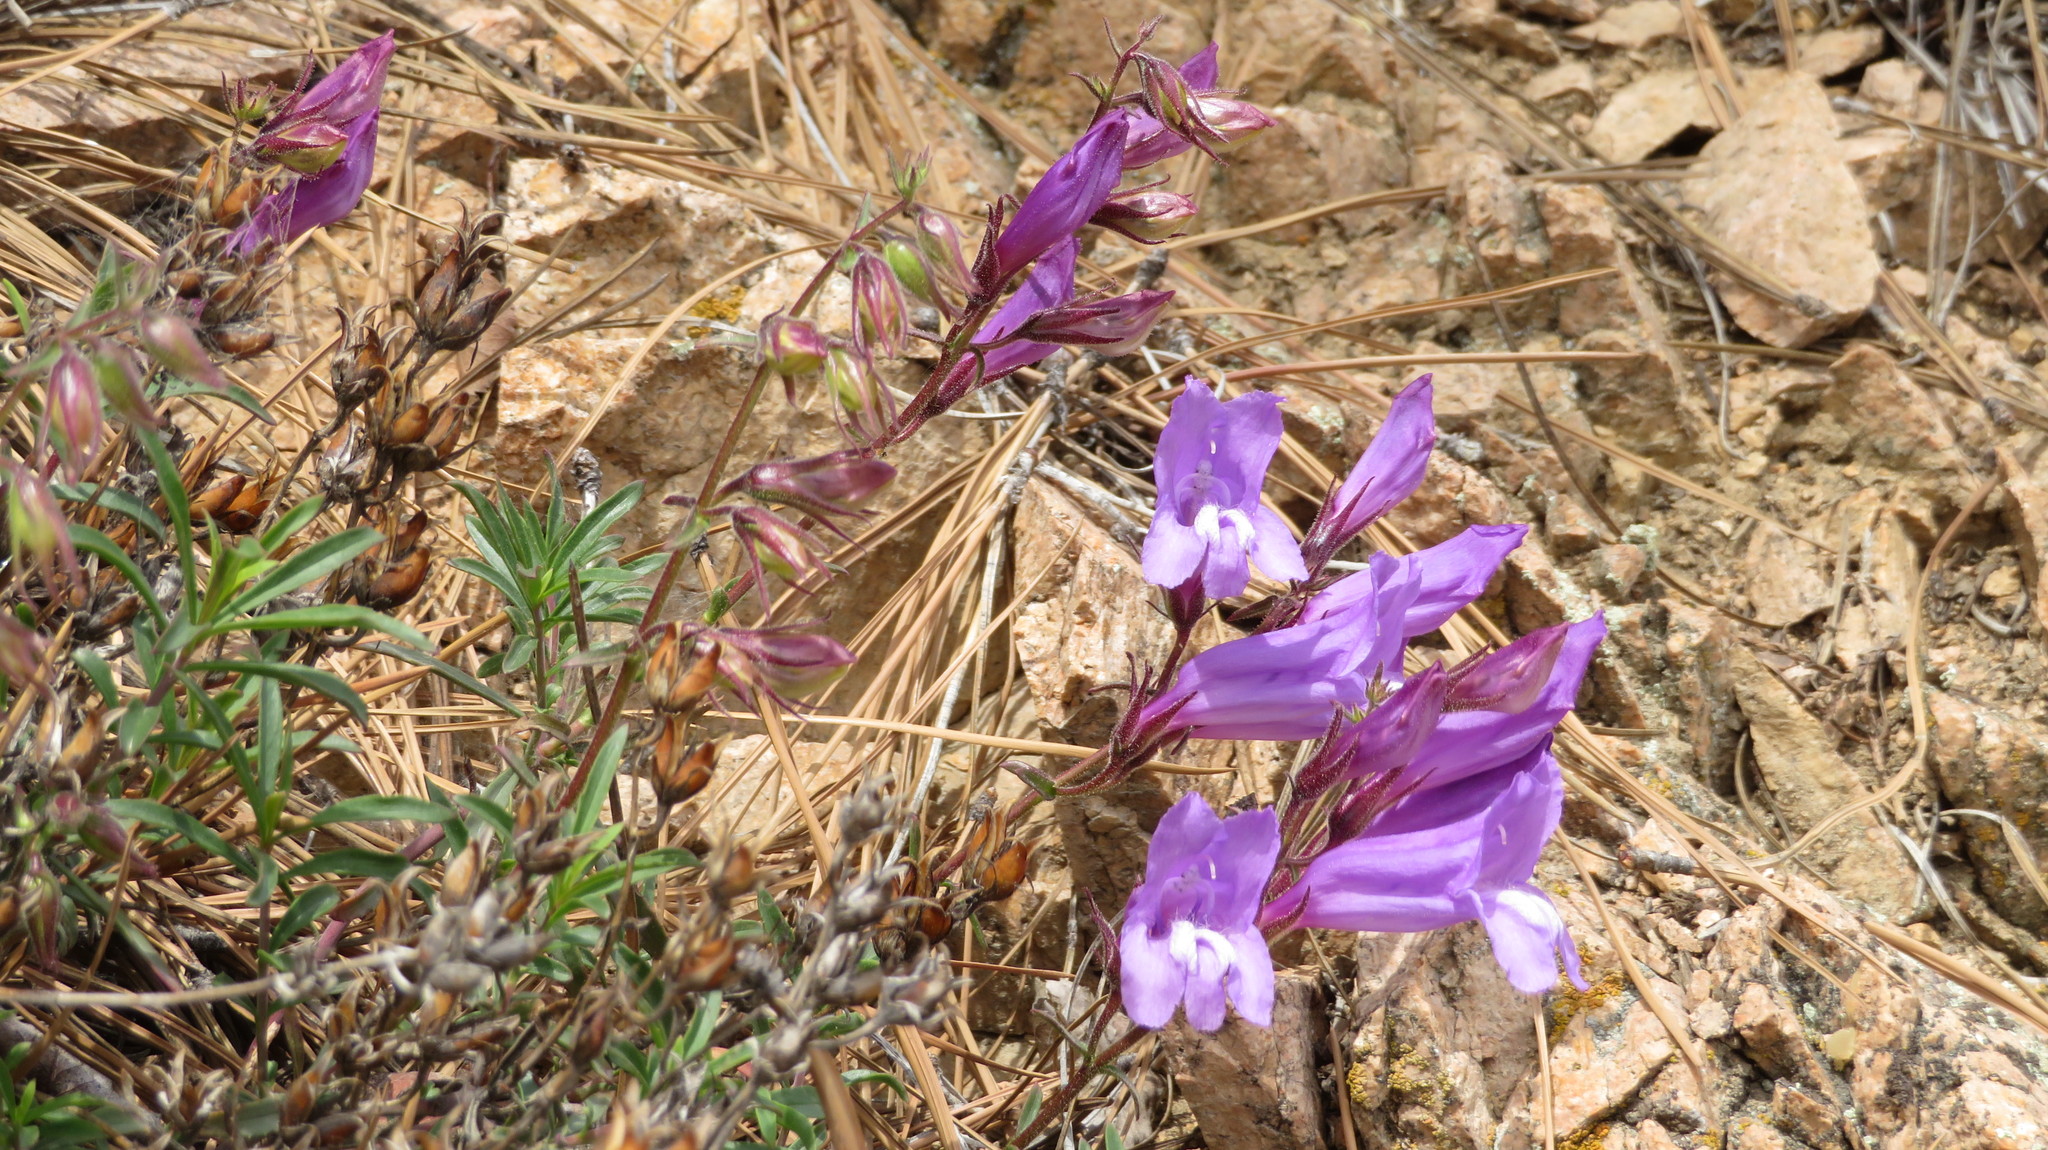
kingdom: Plantae
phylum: Tracheophyta
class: Magnoliopsida
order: Lamiales
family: Plantaginaceae
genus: Penstemon
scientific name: Penstemon fruticosus
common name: Bush penstemon
